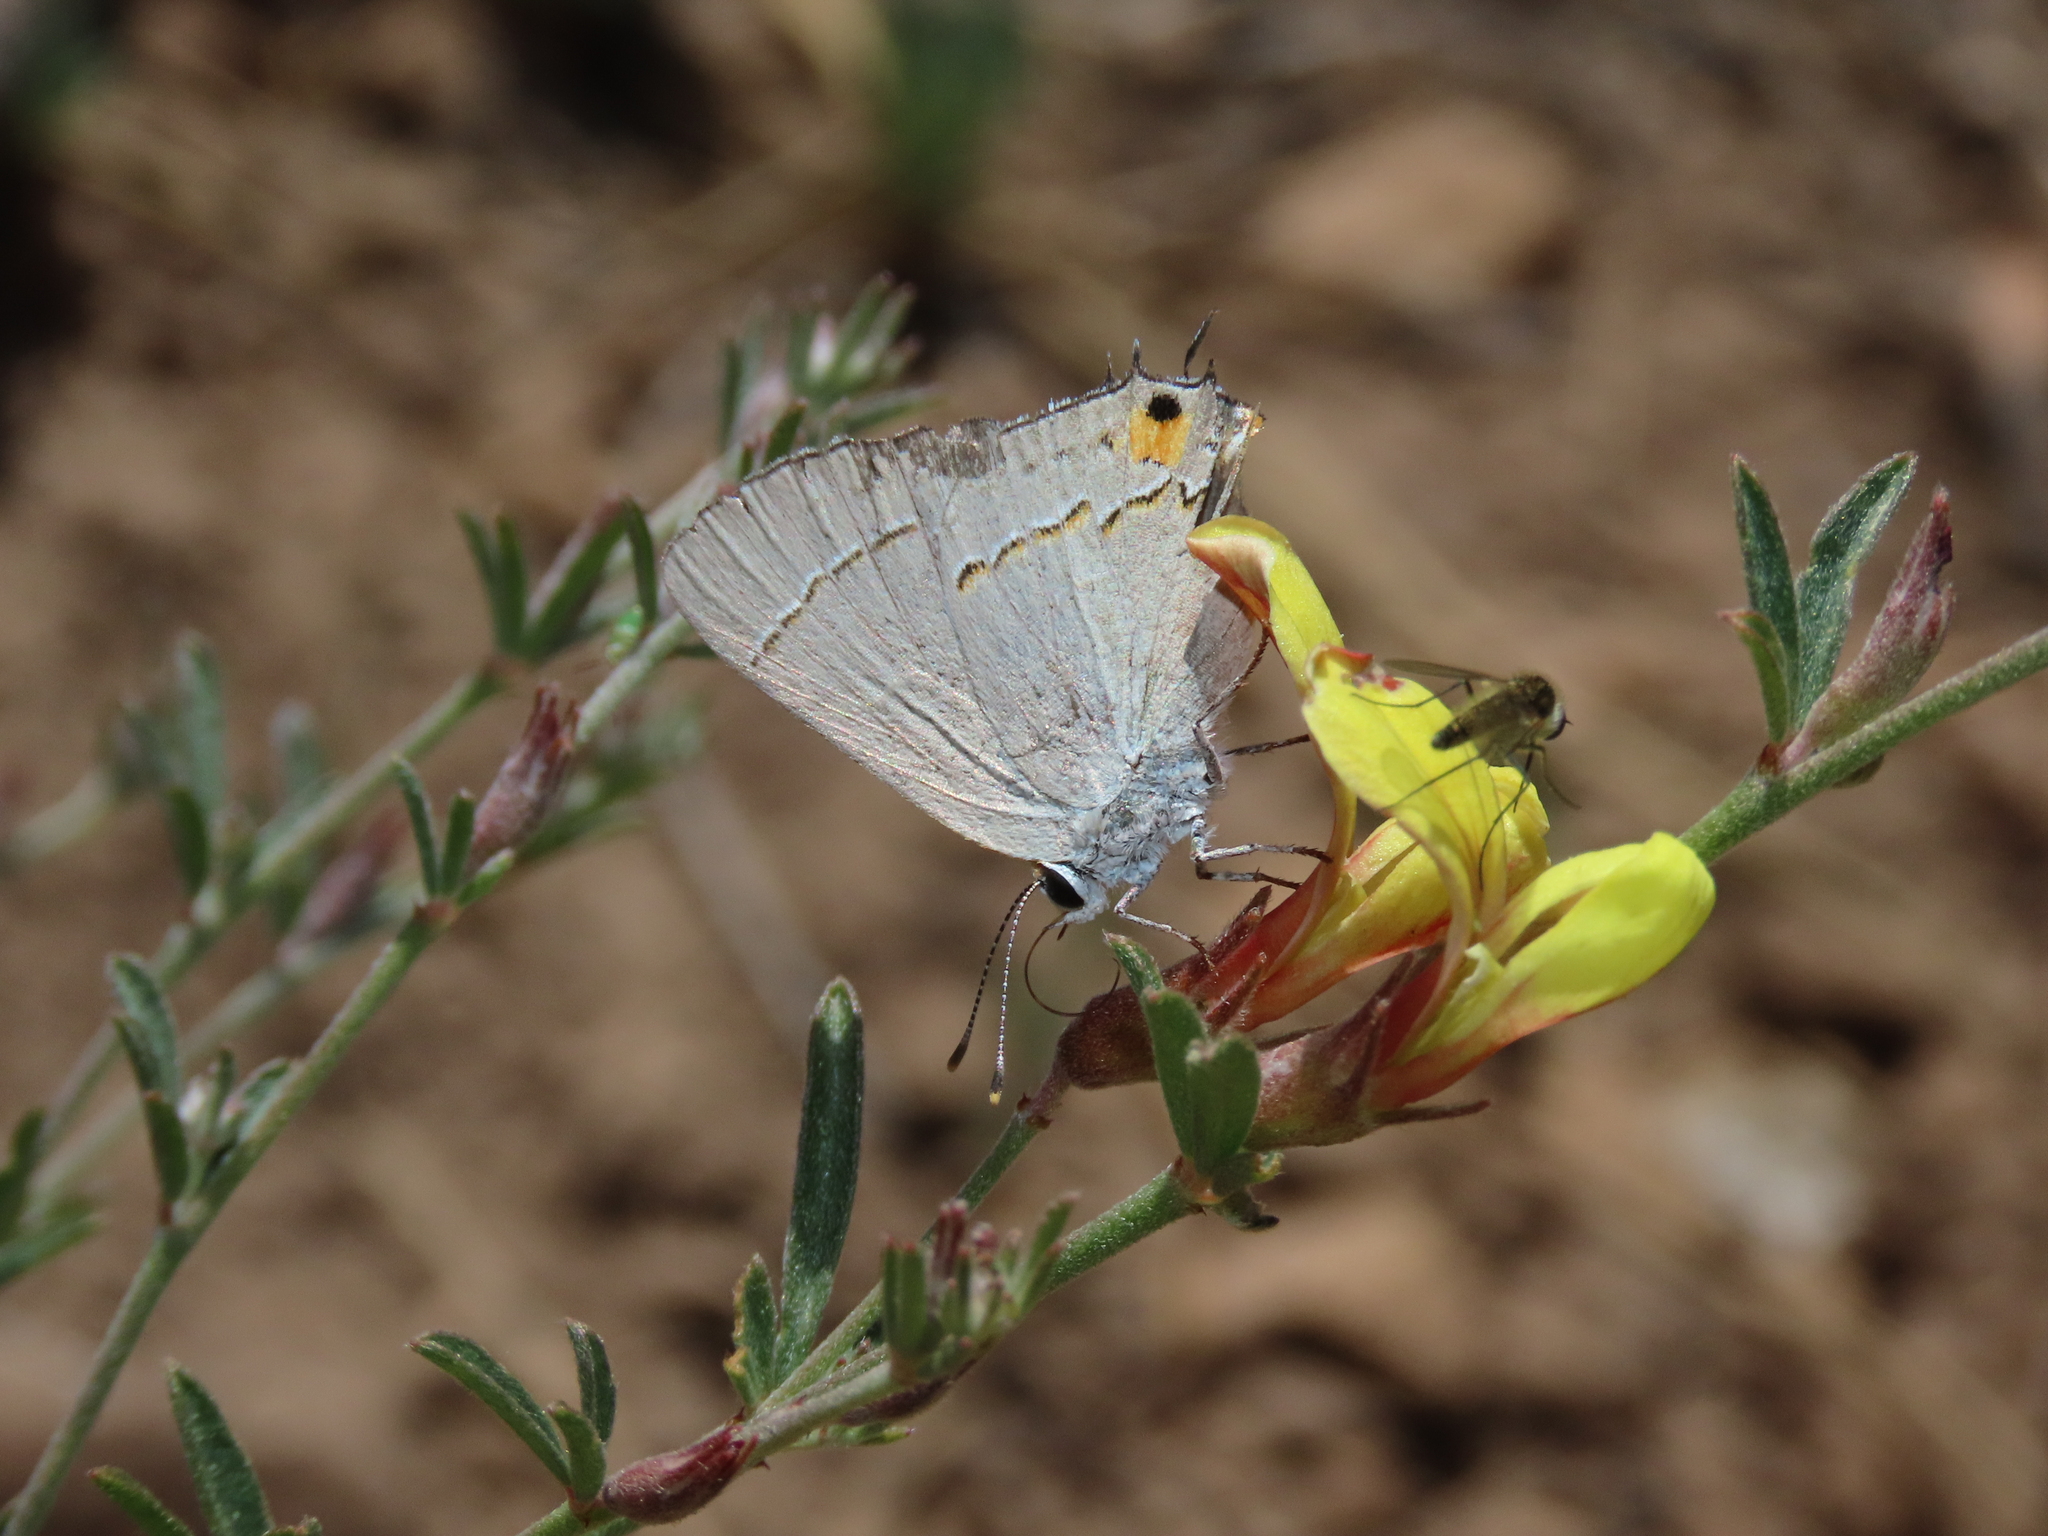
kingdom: Animalia
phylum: Arthropoda
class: Insecta
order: Lepidoptera
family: Lycaenidae
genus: Strymon
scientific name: Strymon melinus
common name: Gray hairstreak
